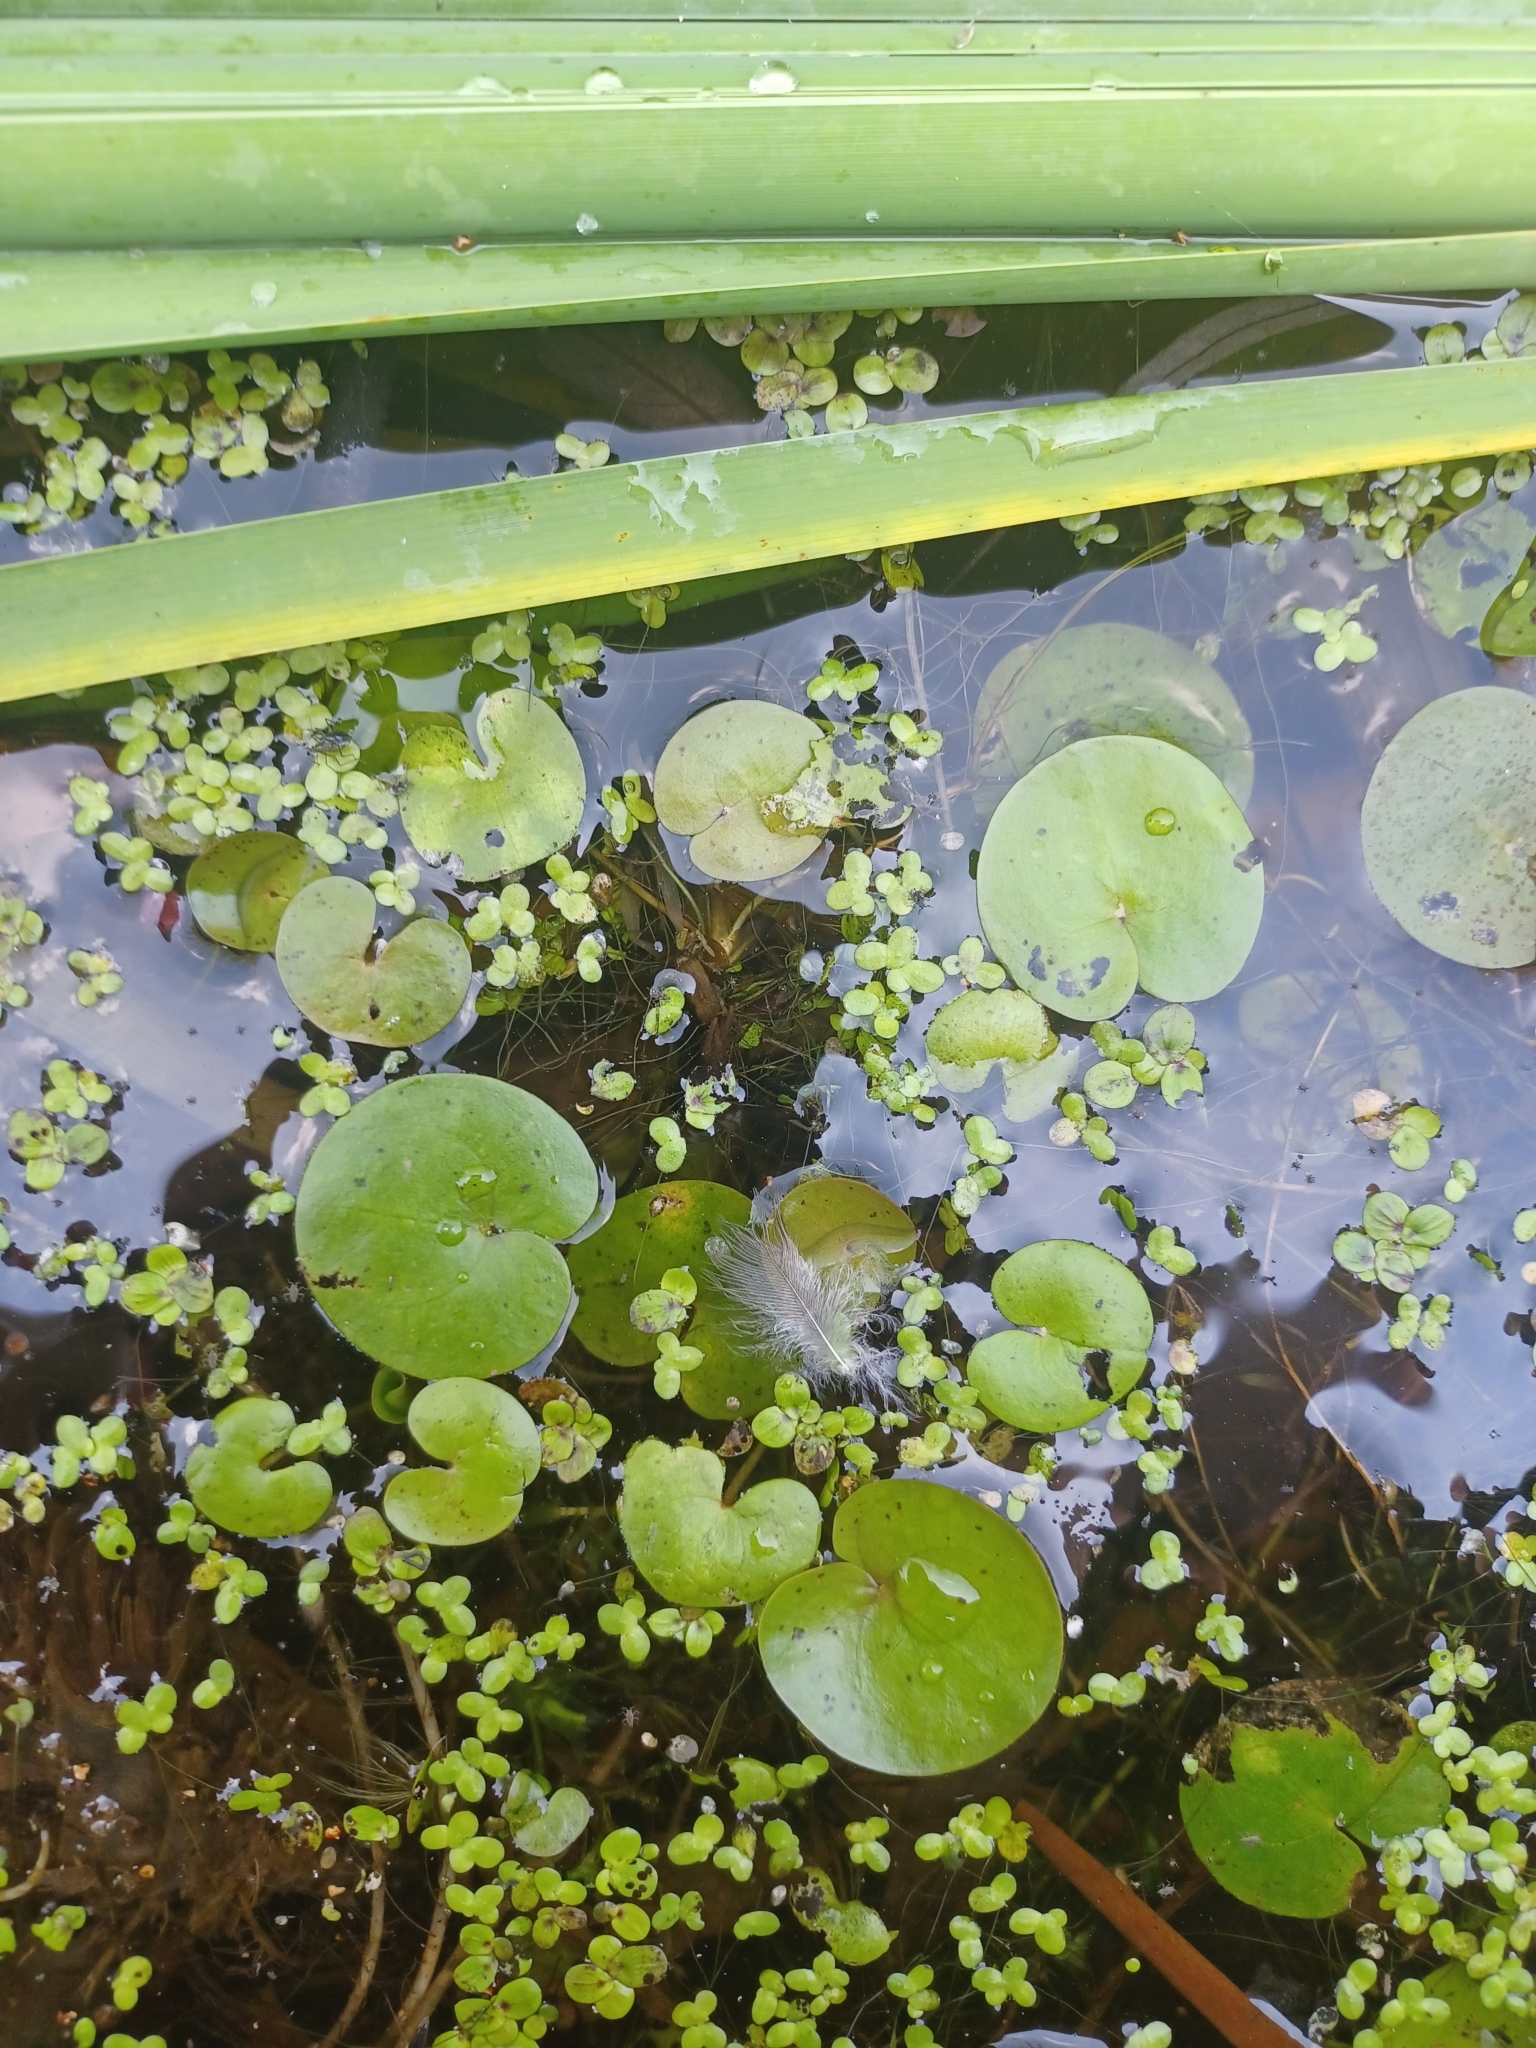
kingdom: Plantae
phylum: Tracheophyta
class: Liliopsida
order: Alismatales
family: Hydrocharitaceae
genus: Hydrocharis
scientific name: Hydrocharis morsus-ranae
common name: Frogbit
